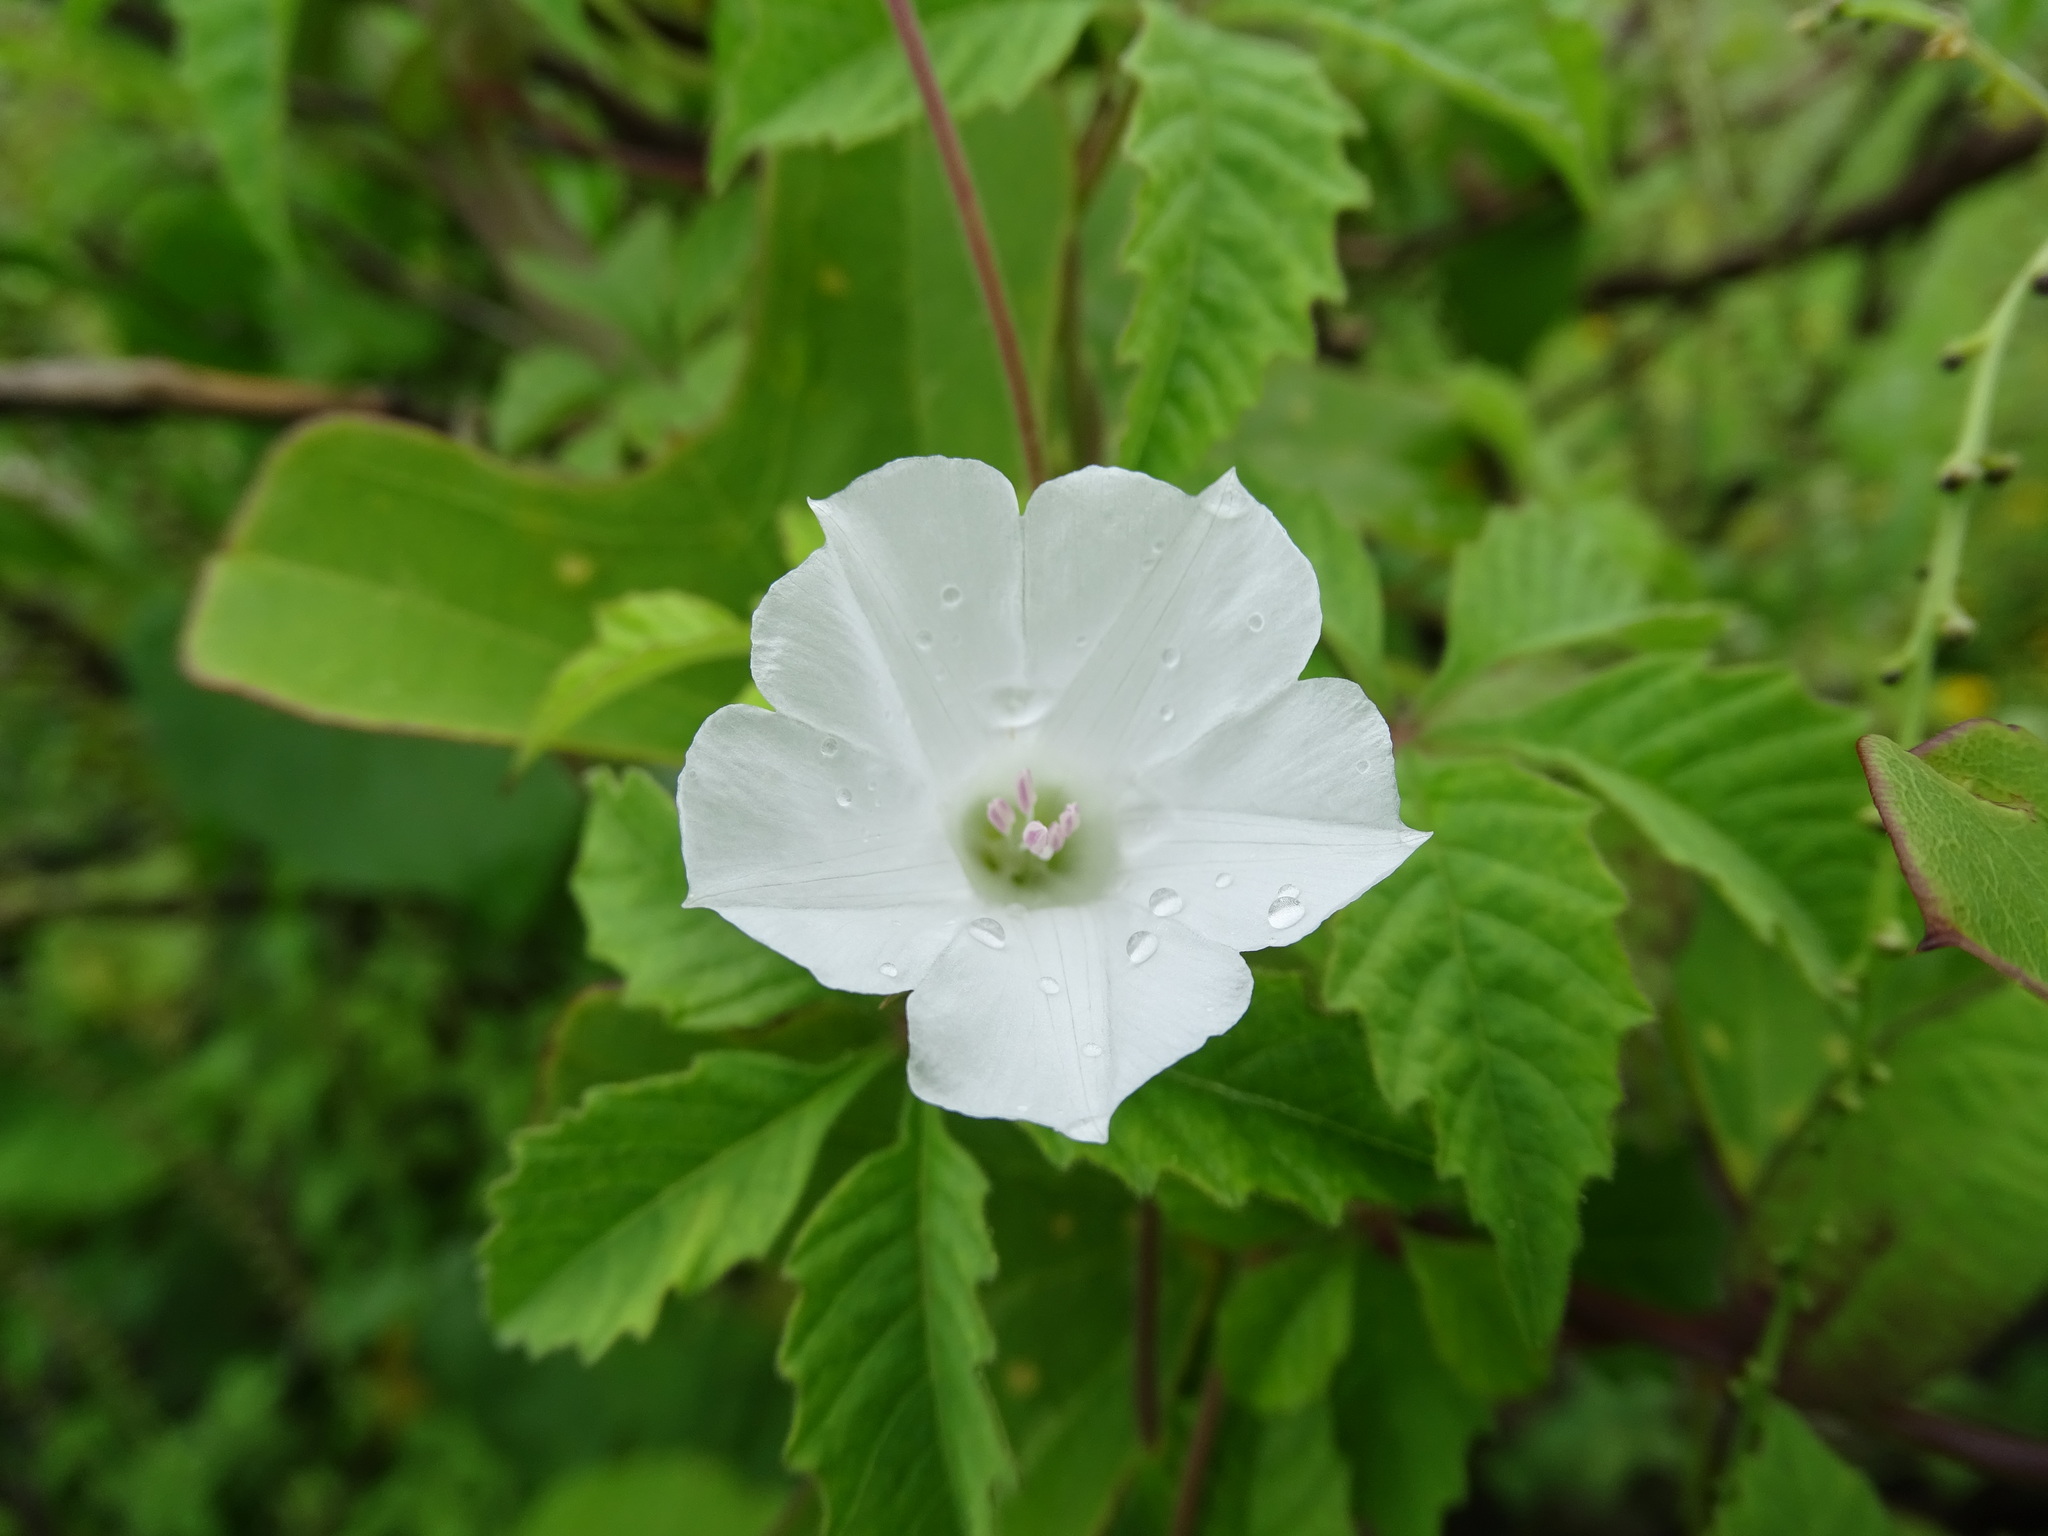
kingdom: Plantae
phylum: Tracheophyta
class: Magnoliopsida
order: Solanales
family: Convolvulaceae
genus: Distimake
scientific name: Distimake cissoides
